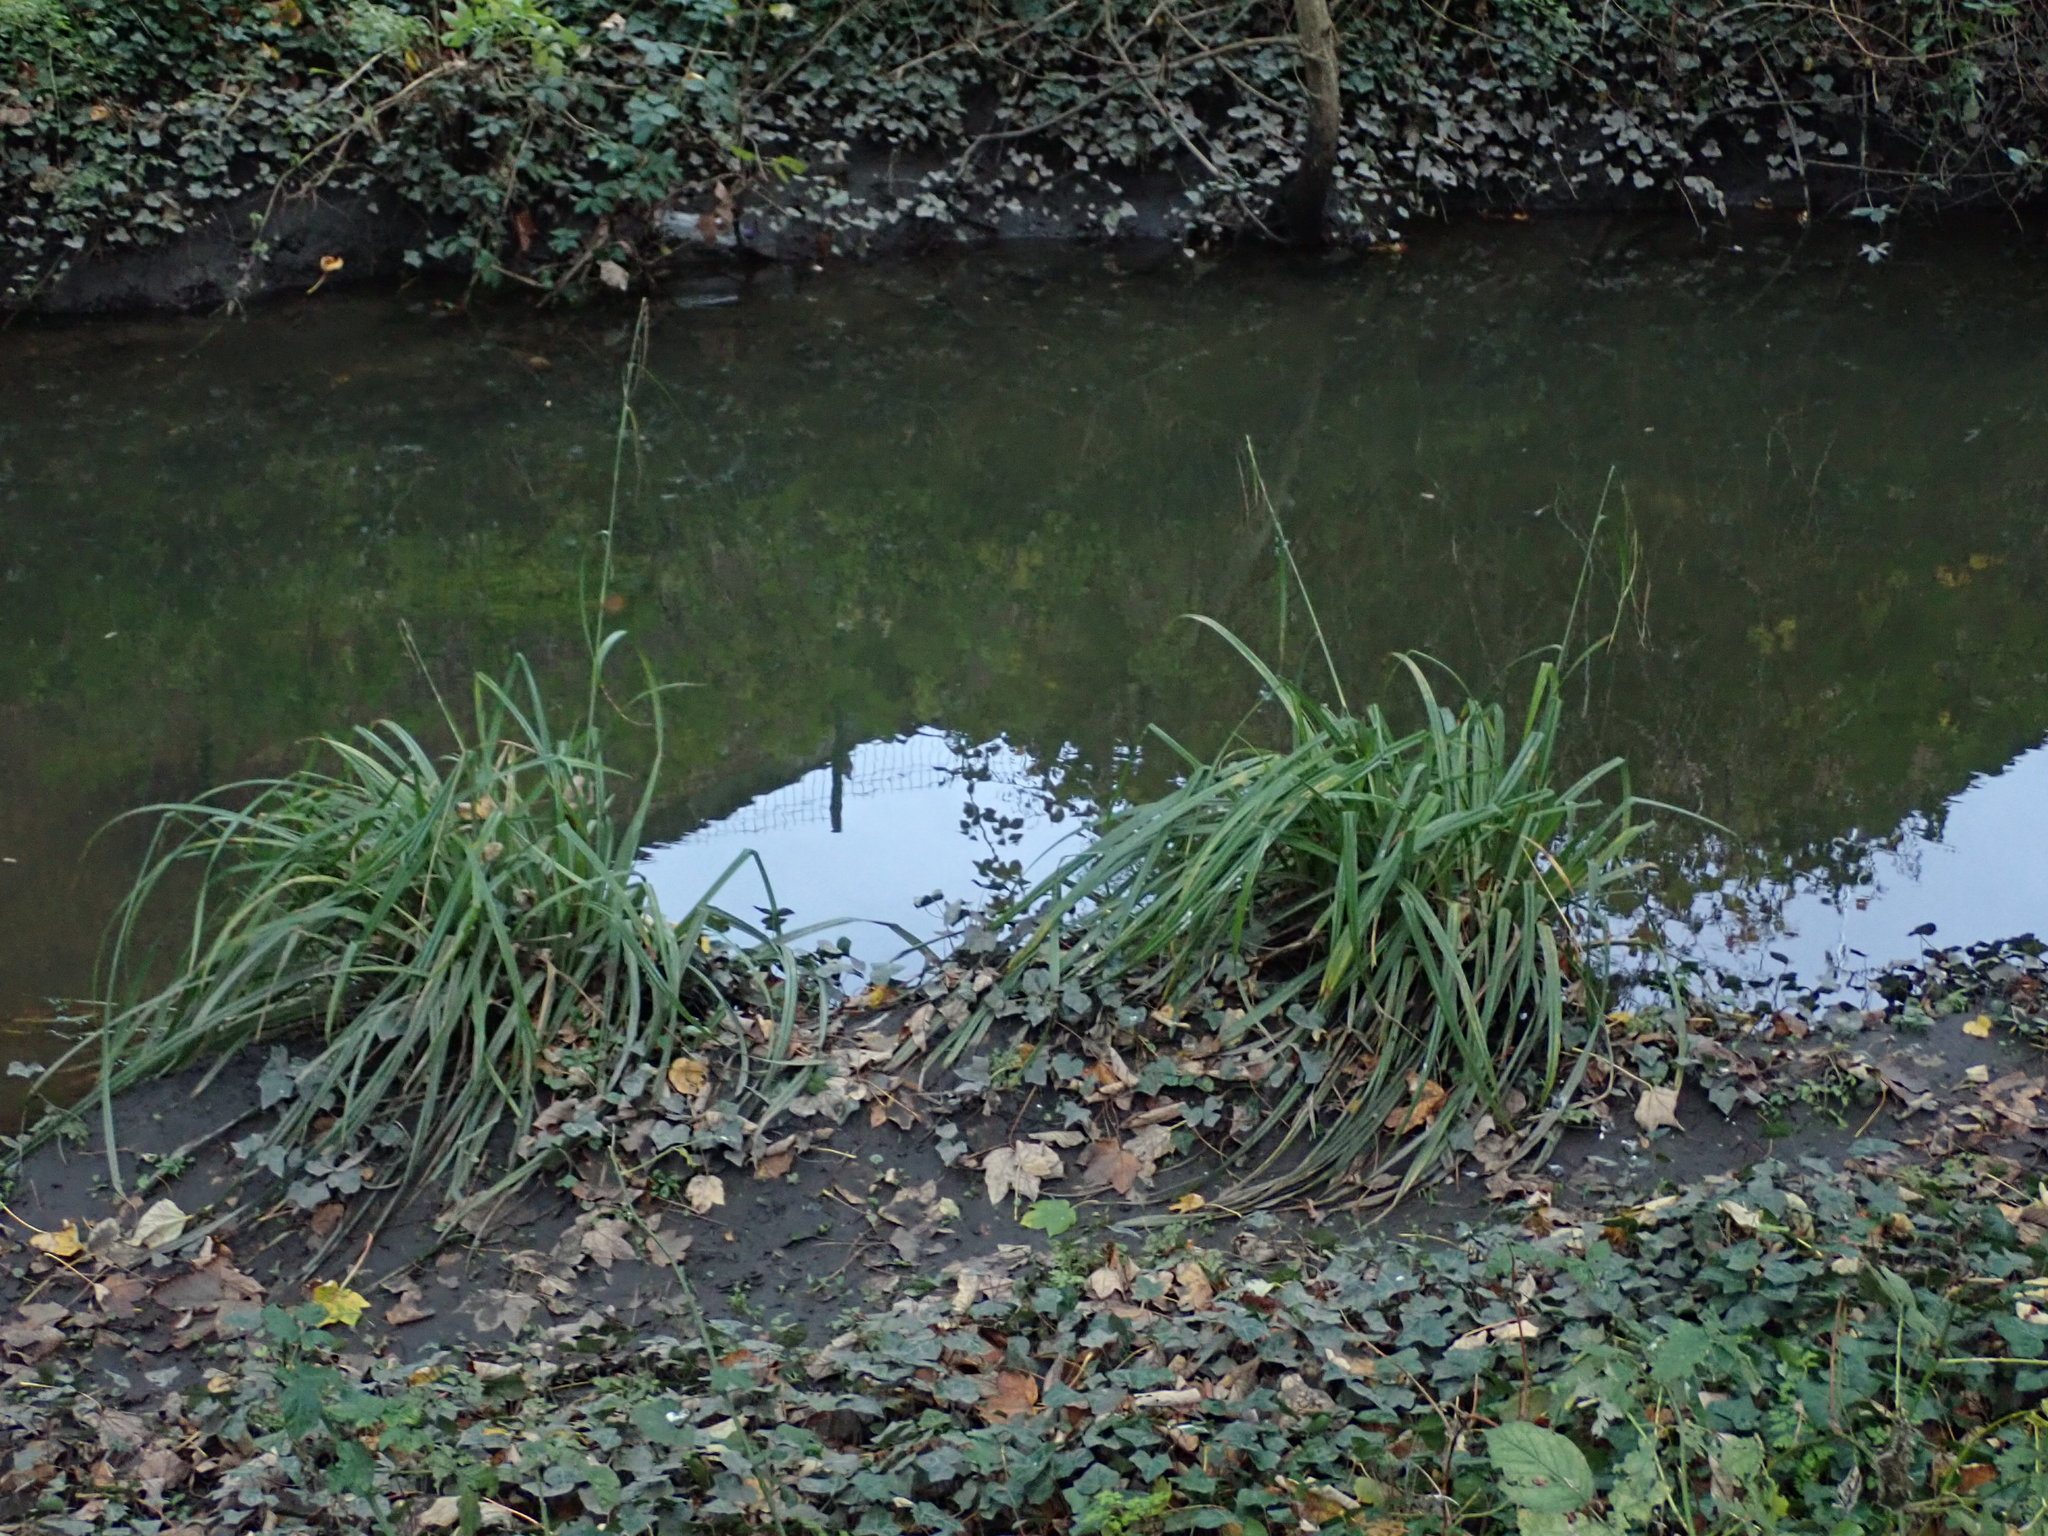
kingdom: Plantae
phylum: Tracheophyta
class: Liliopsida
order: Poales
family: Cyperaceae
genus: Carex
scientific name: Carex pendula
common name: Pendulous sedge
